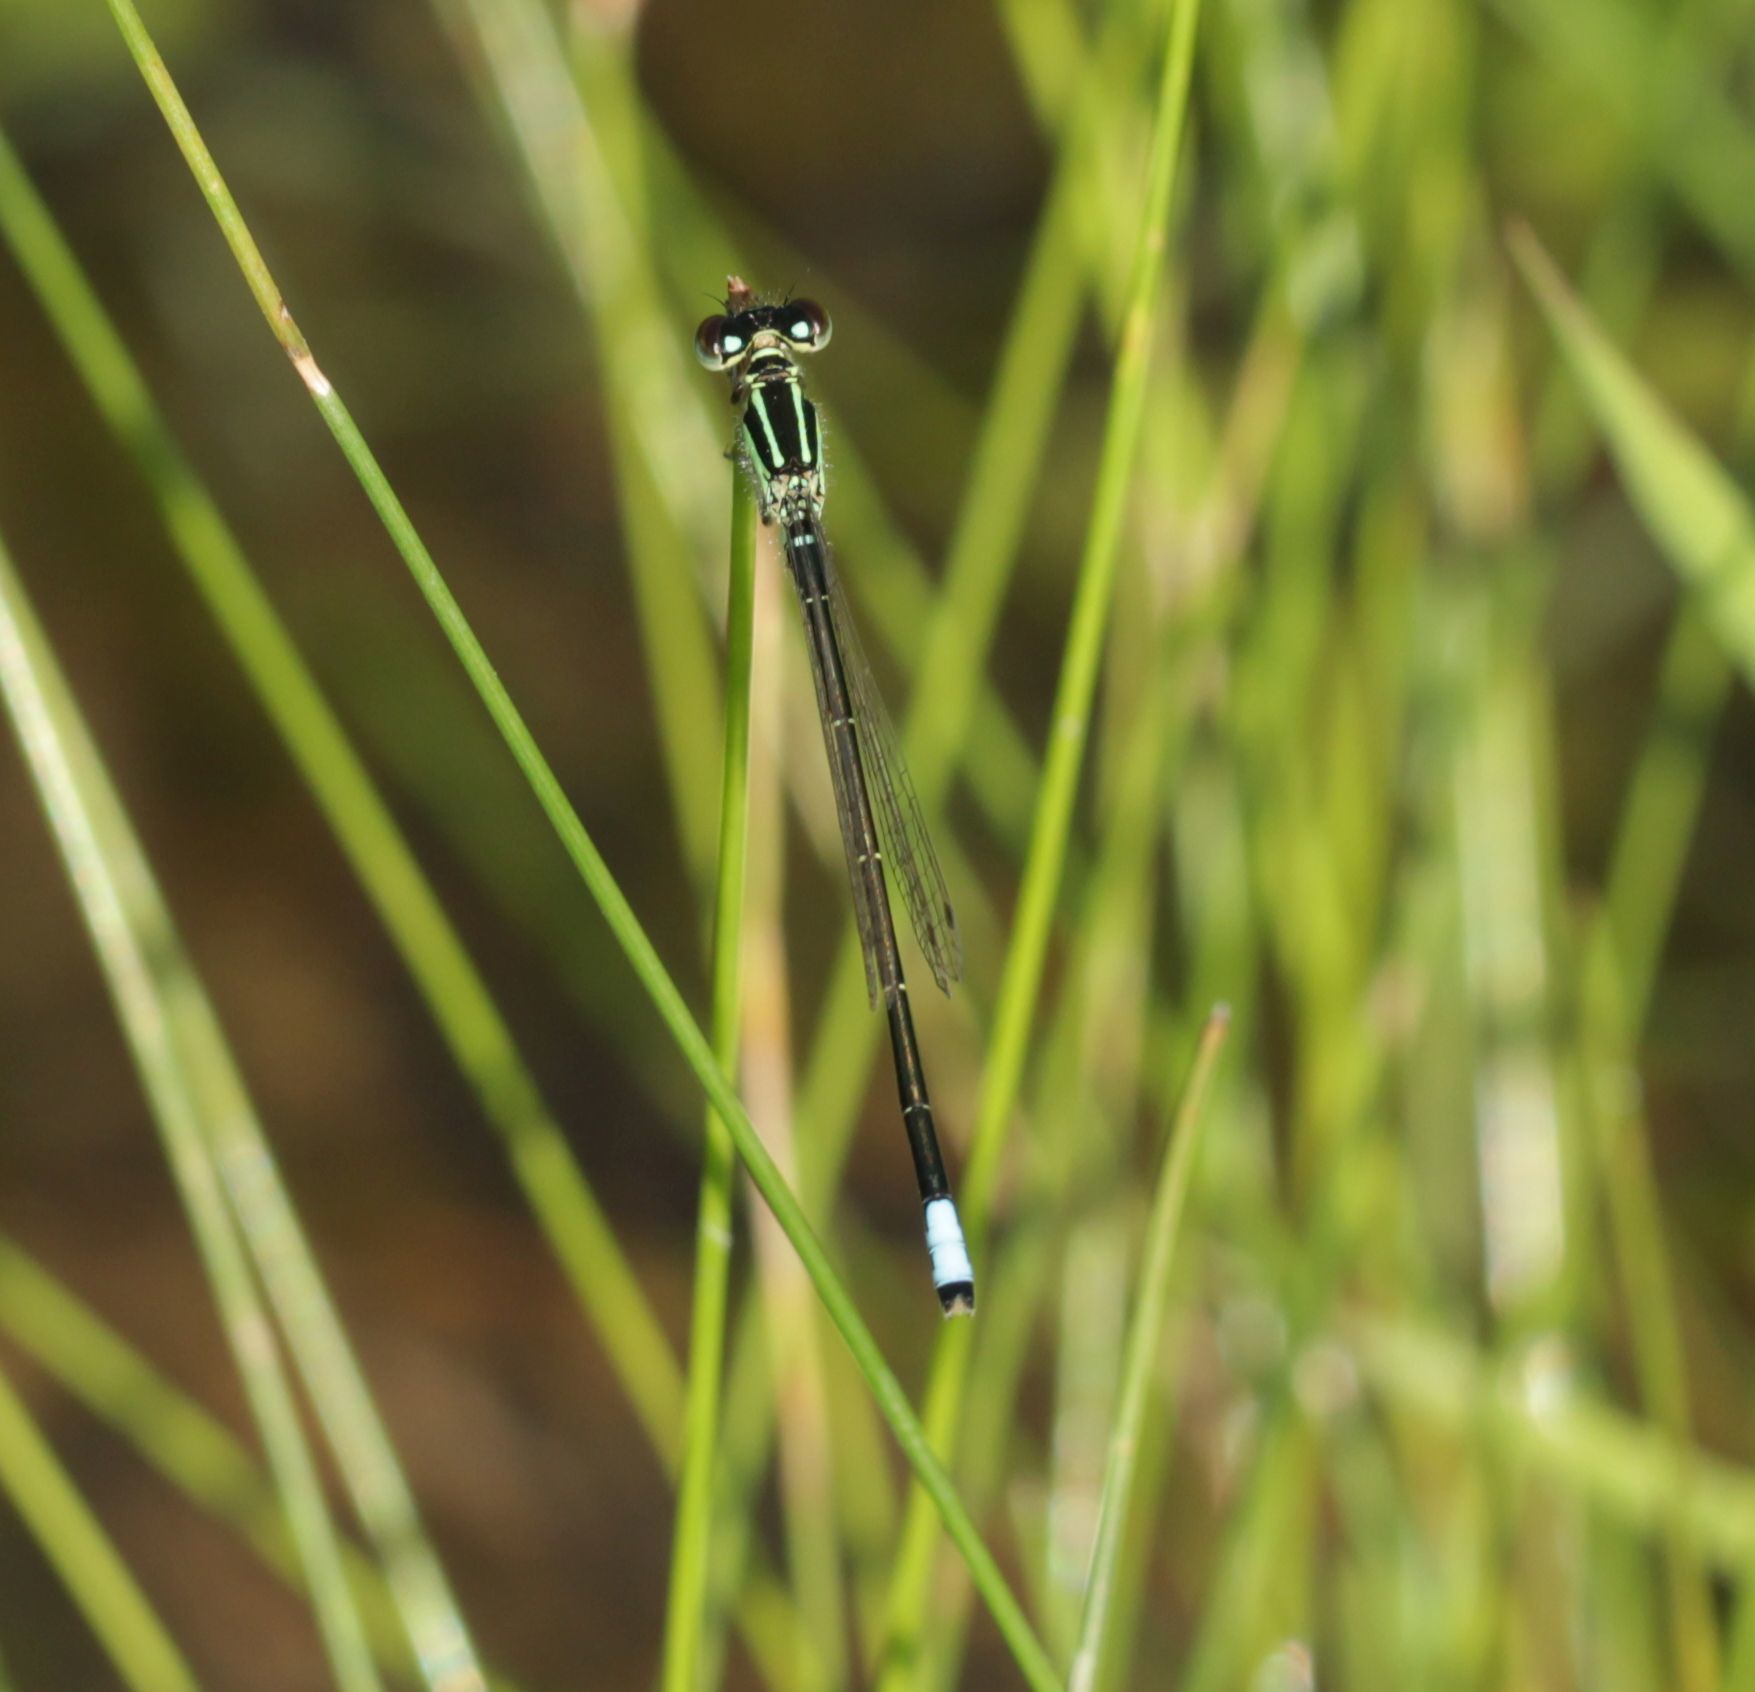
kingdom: Animalia
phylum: Arthropoda
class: Insecta
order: Odonata
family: Coenagrionidae
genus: Ischnura
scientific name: Ischnura verticalis
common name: Eastern forktail
